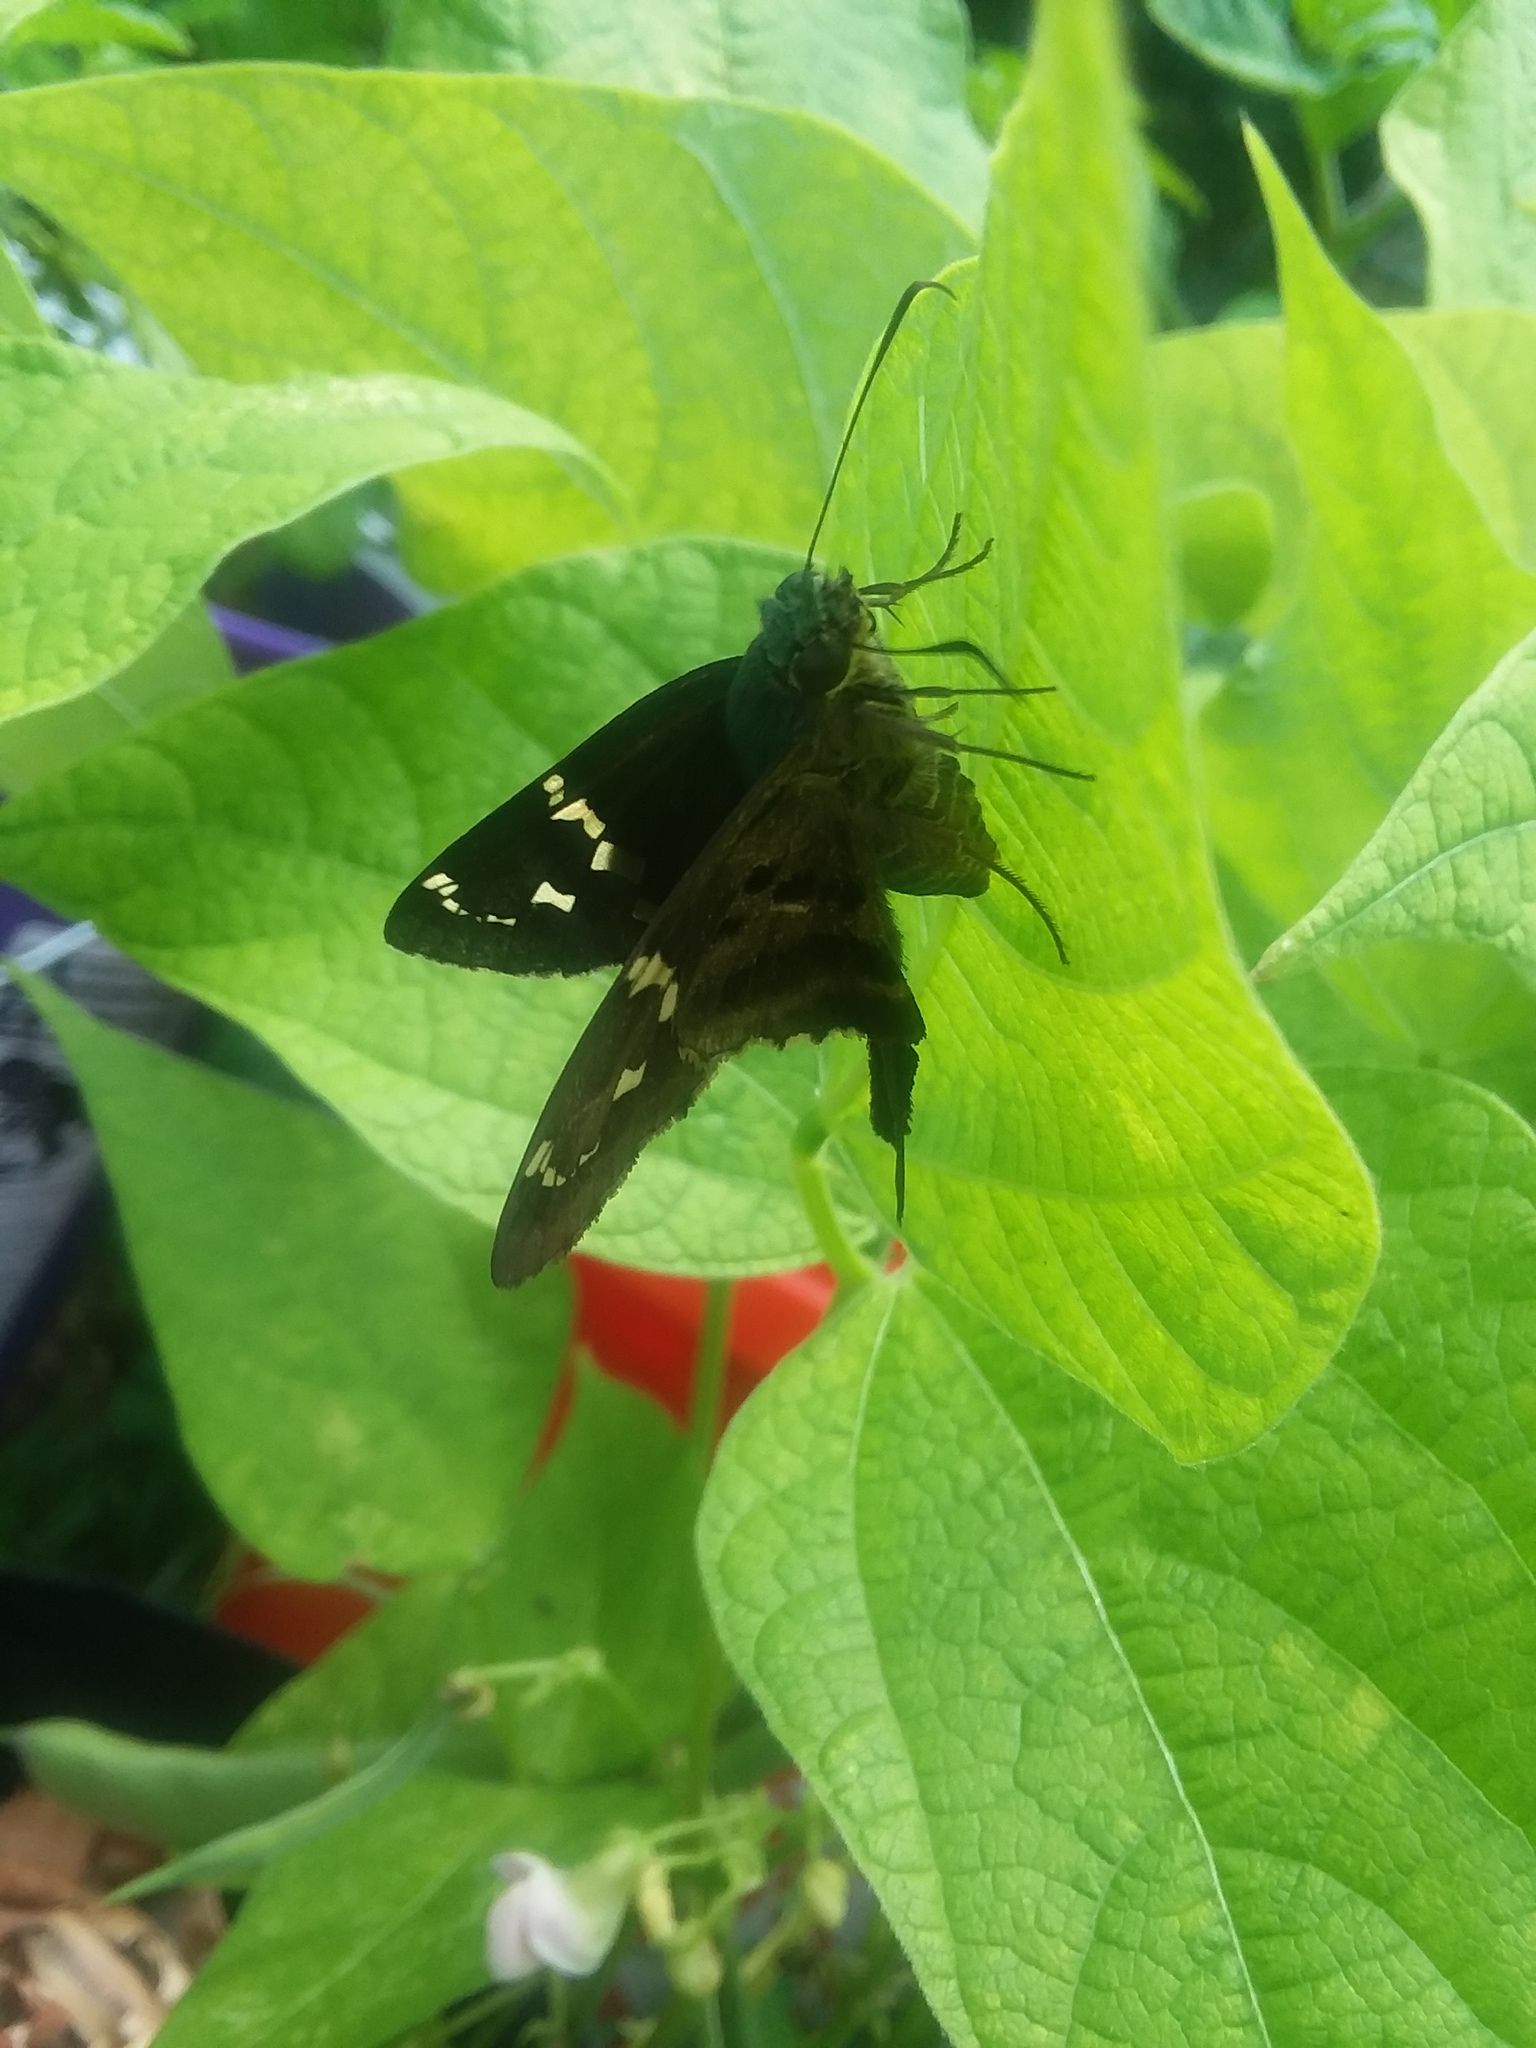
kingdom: Animalia
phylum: Arthropoda
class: Insecta
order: Lepidoptera
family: Hesperiidae
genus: Urbanus
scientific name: Urbanus proteus
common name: Long-tailed skipper
